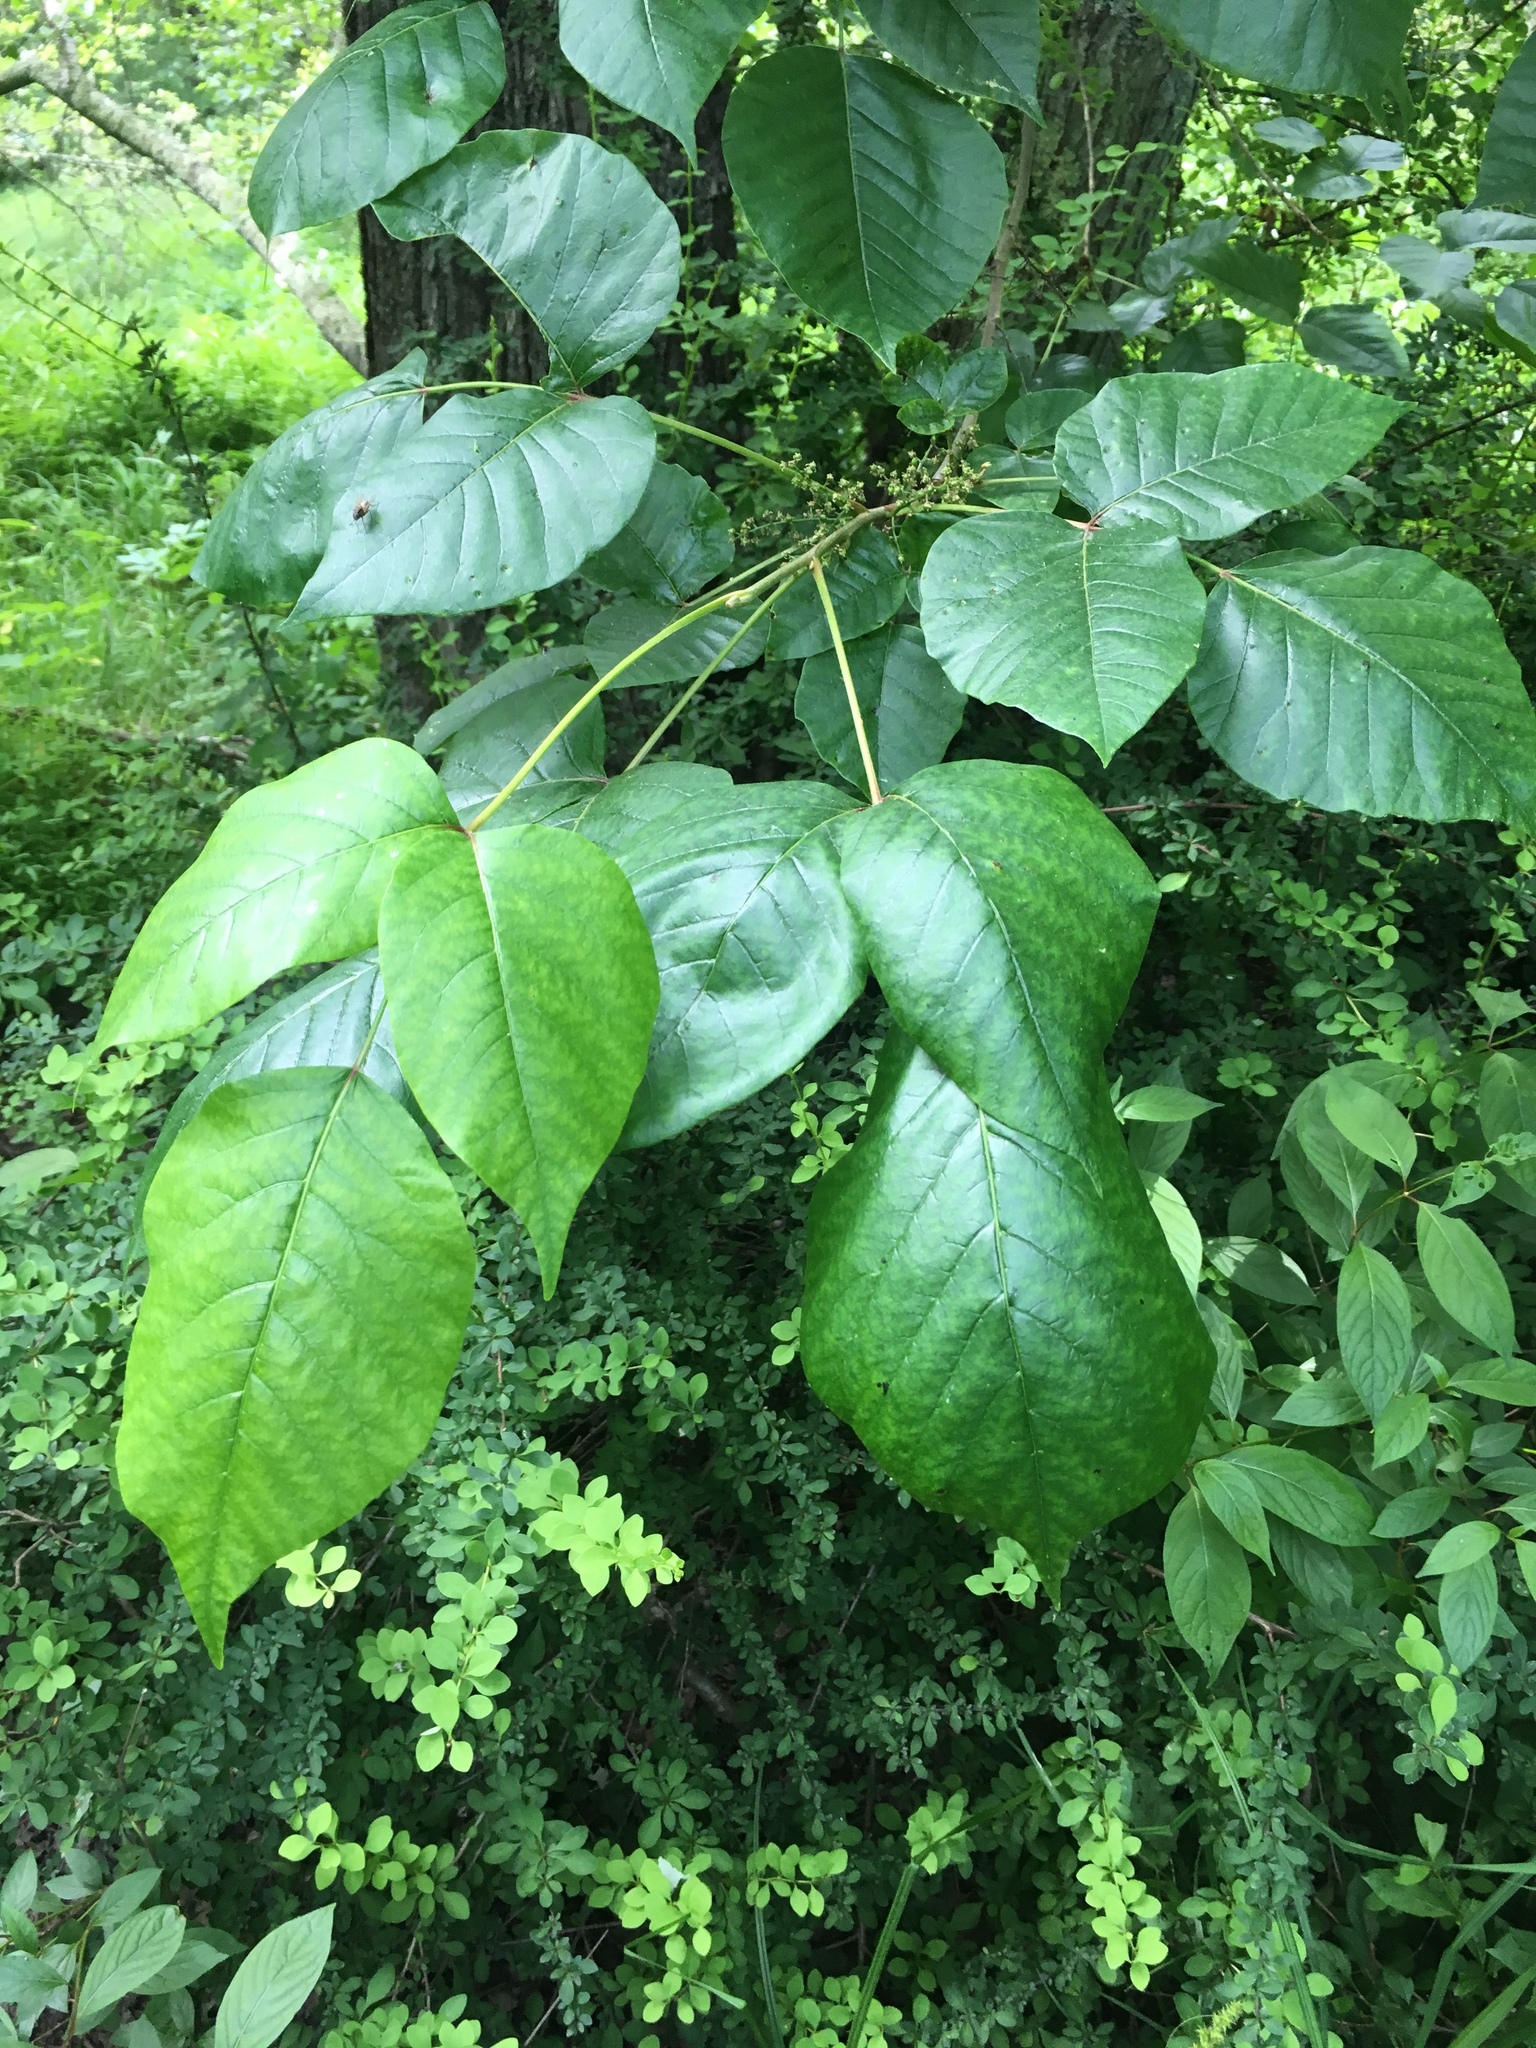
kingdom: Plantae
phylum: Tracheophyta
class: Magnoliopsida
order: Sapindales
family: Anacardiaceae
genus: Toxicodendron
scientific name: Toxicodendron radicans
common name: Poison ivy
